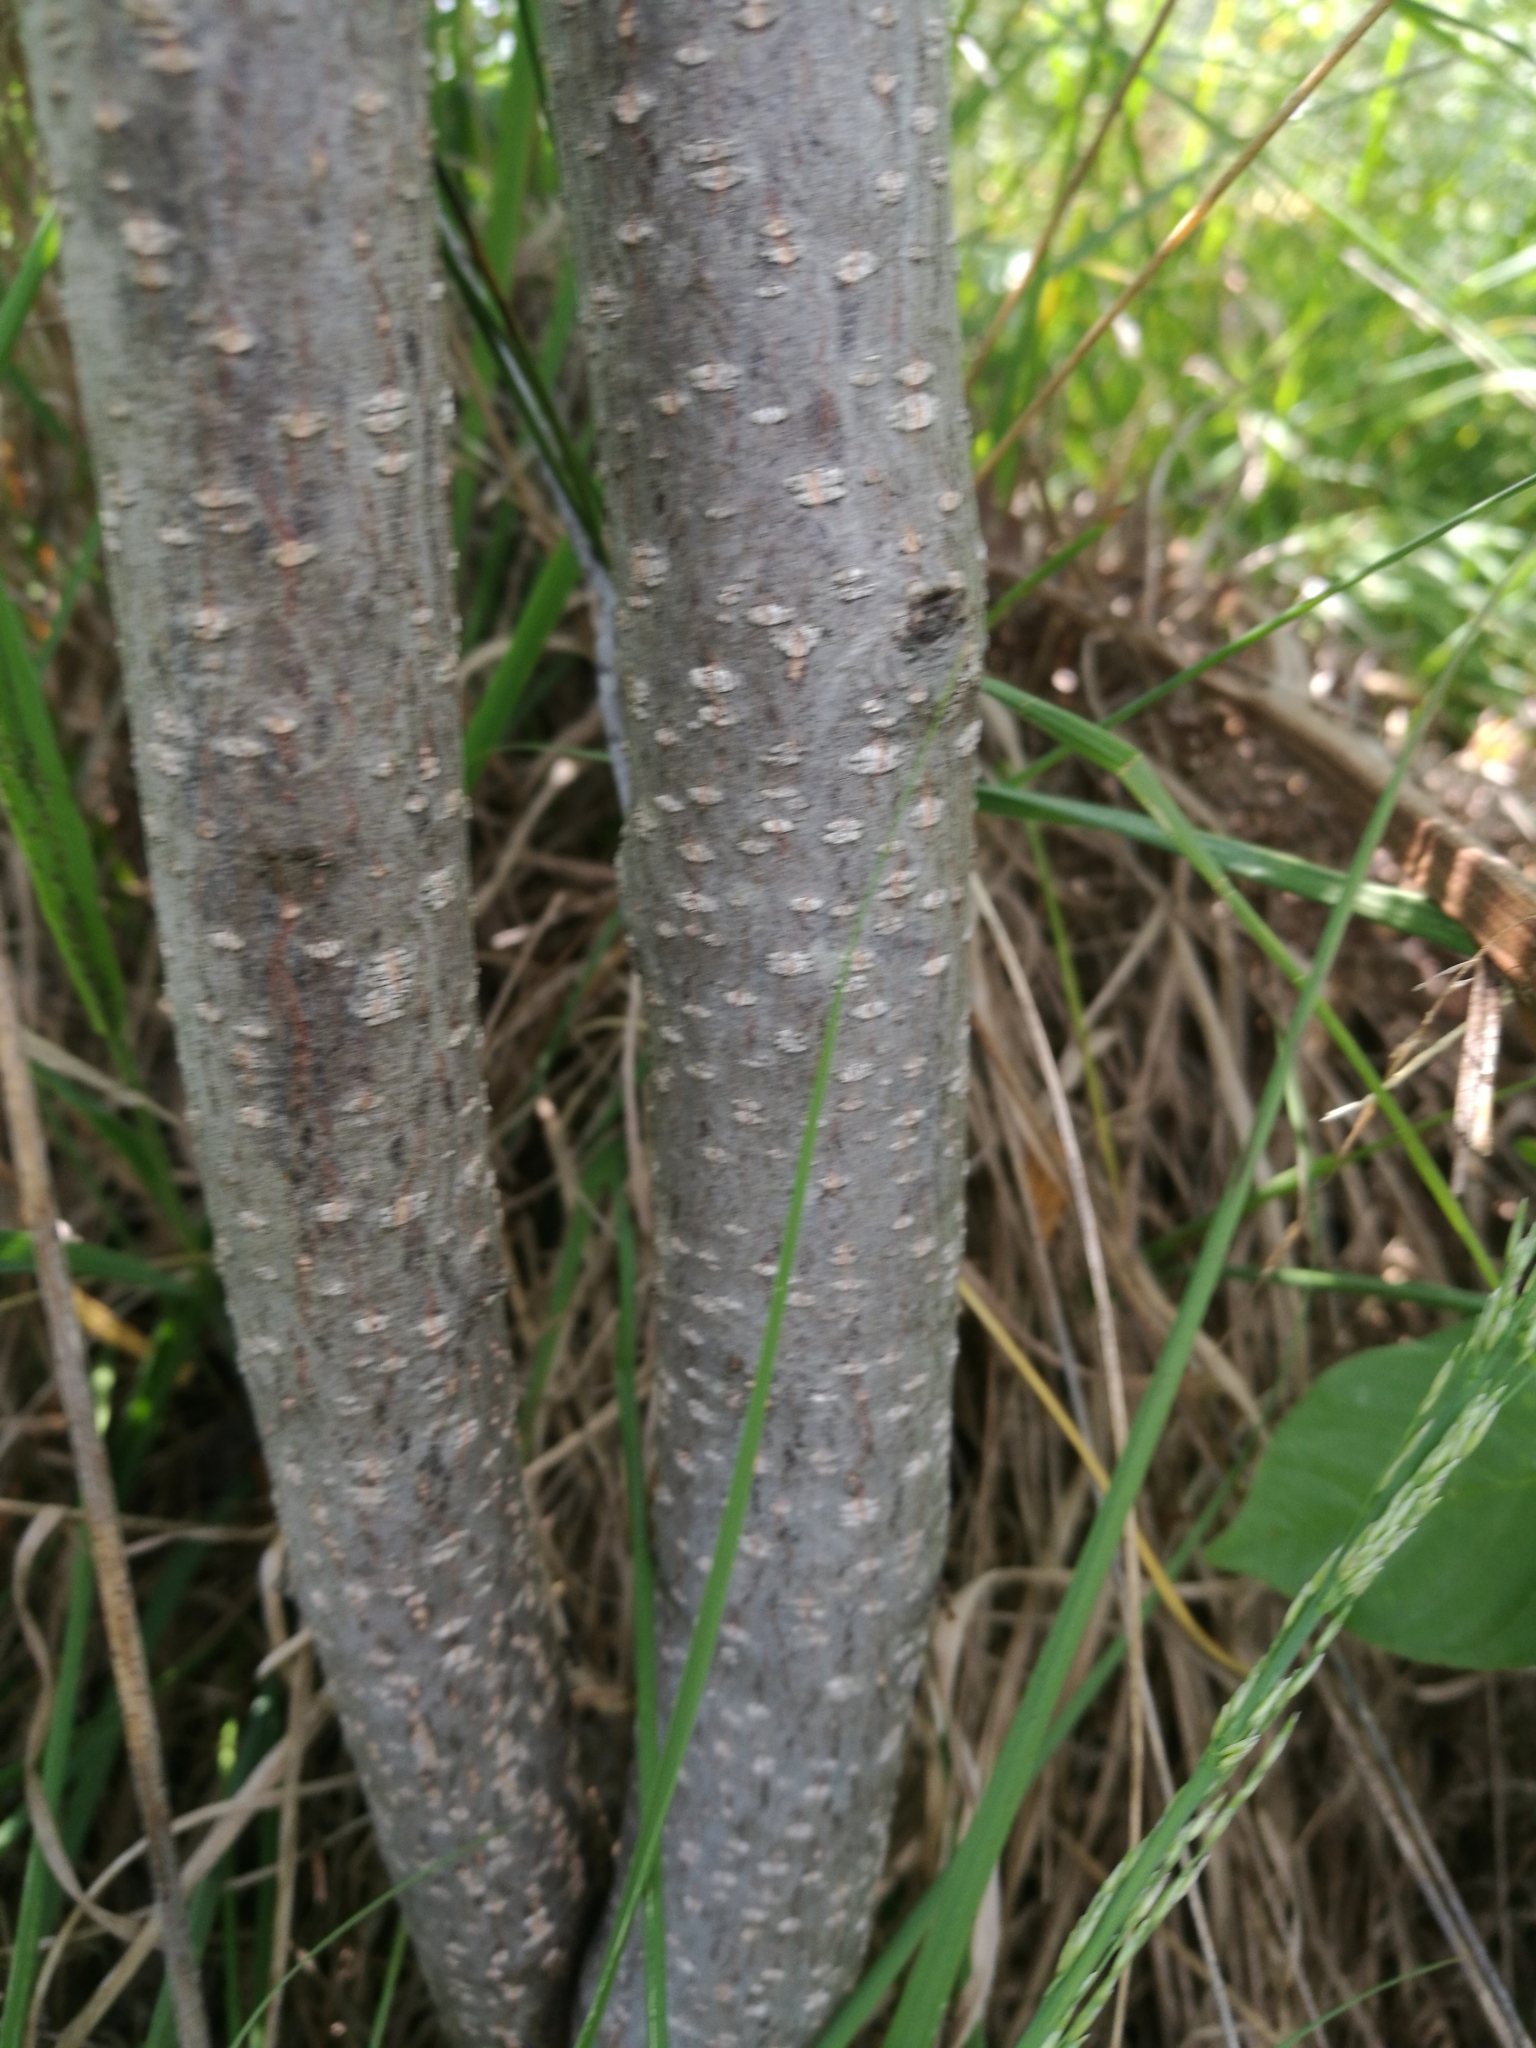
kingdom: Plantae
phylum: Tracheophyta
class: Magnoliopsida
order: Rosales
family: Rhamnaceae
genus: Frangula
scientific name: Frangula alnus
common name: Alder buckthorn
